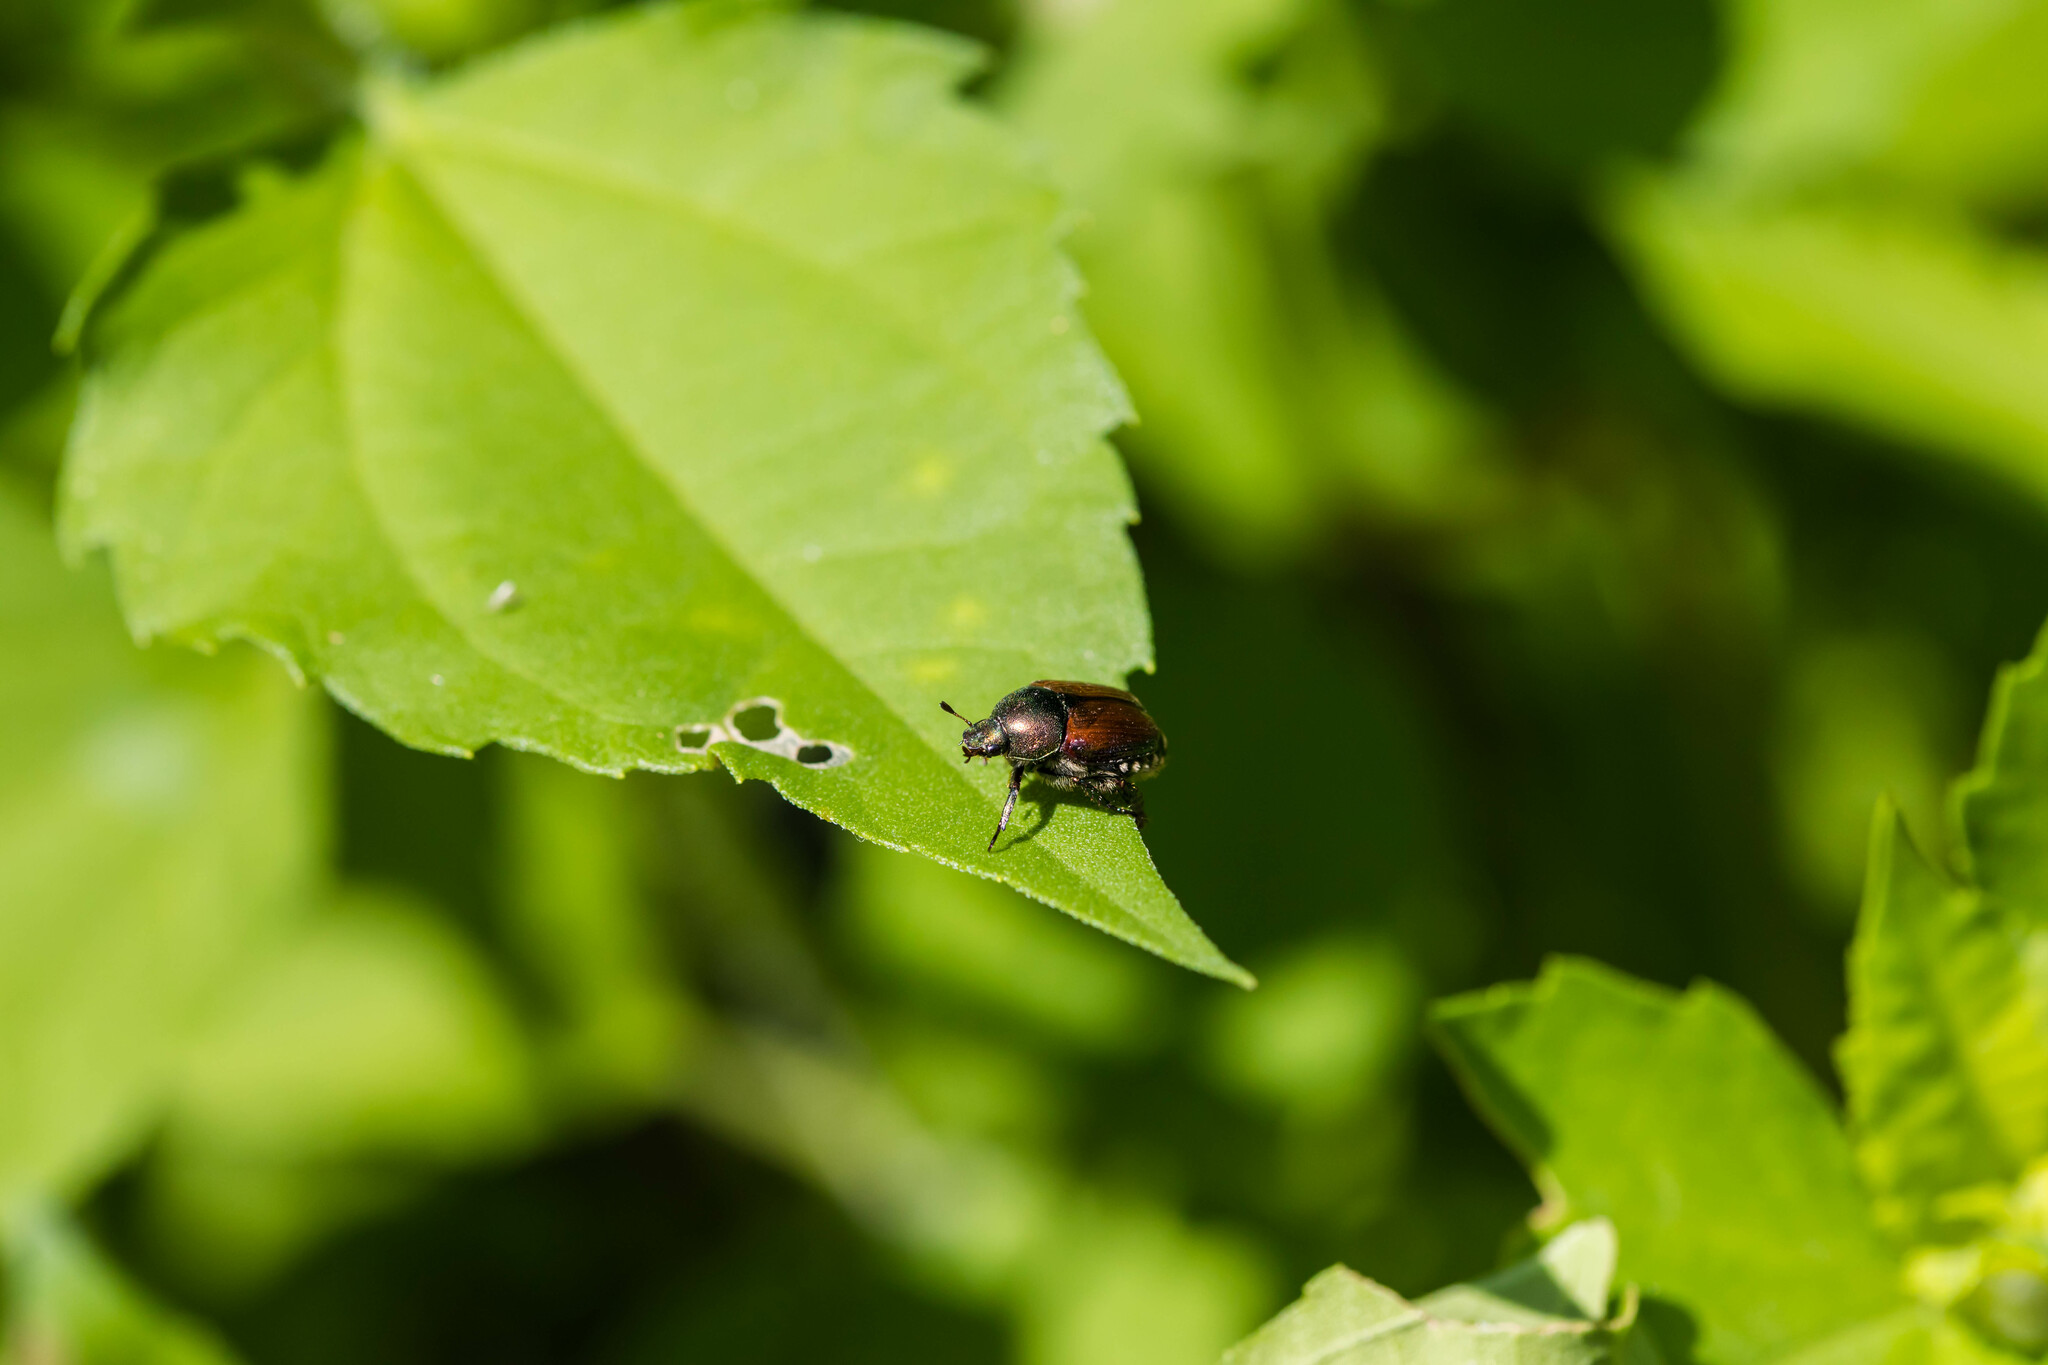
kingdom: Animalia
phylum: Arthropoda
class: Insecta
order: Coleoptera
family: Scarabaeidae
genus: Popillia
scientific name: Popillia japonica
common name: Japanese beetle
